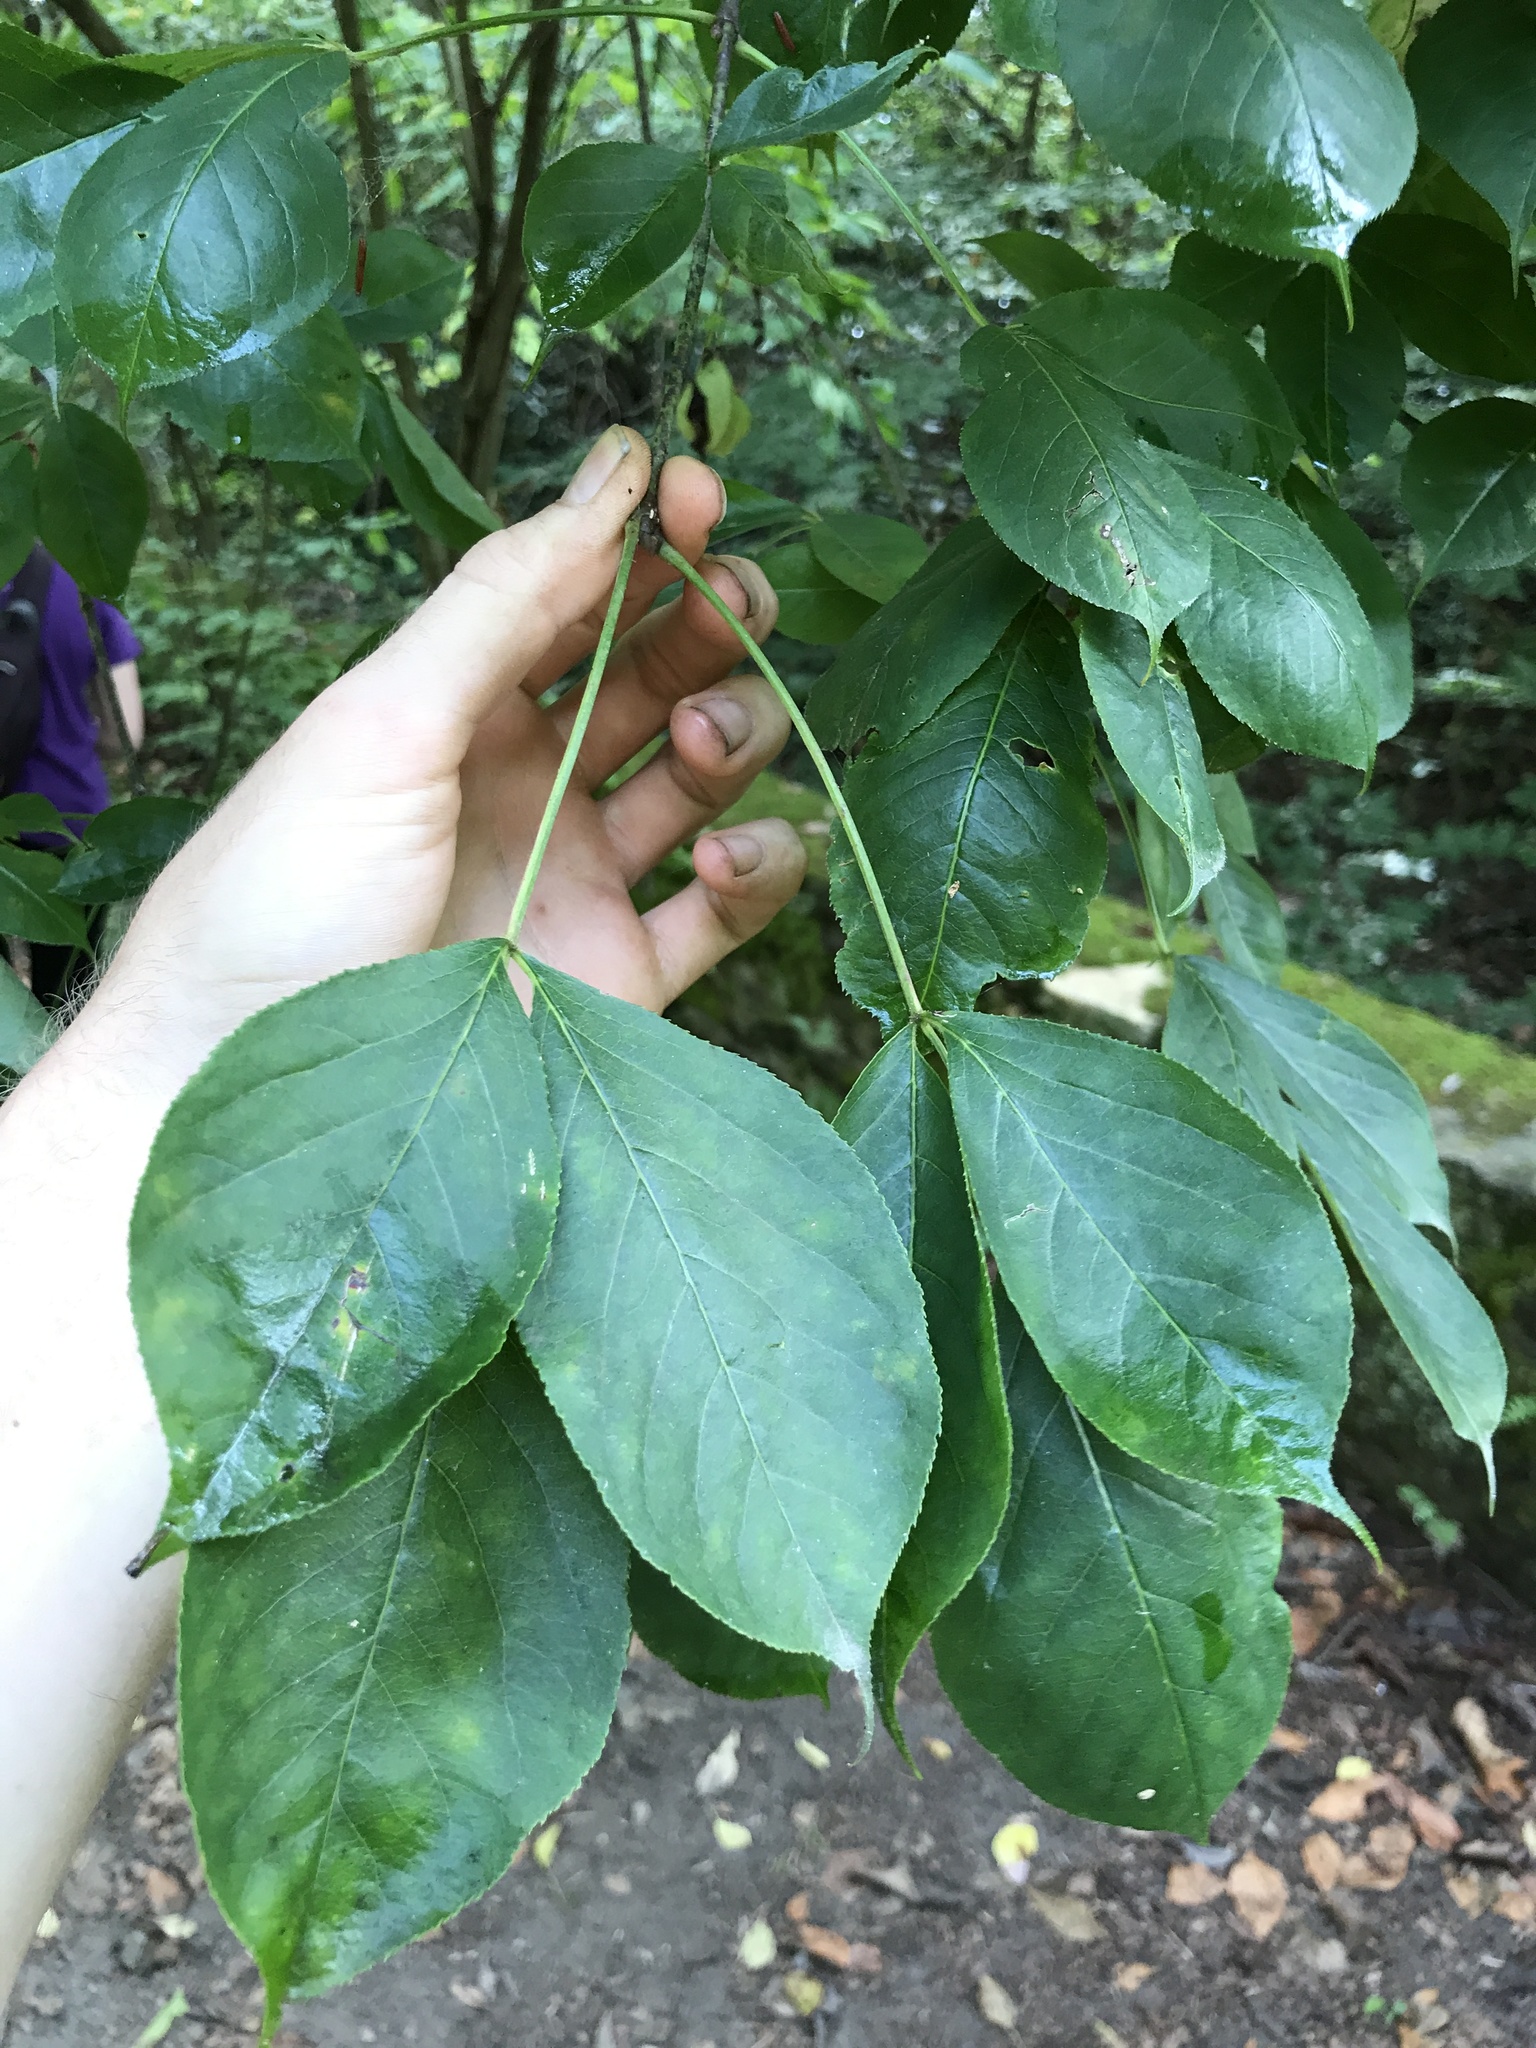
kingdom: Plantae
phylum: Tracheophyta
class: Magnoliopsida
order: Crossosomatales
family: Staphyleaceae
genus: Staphylea
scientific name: Staphylea trifolia
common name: American bladdernut
